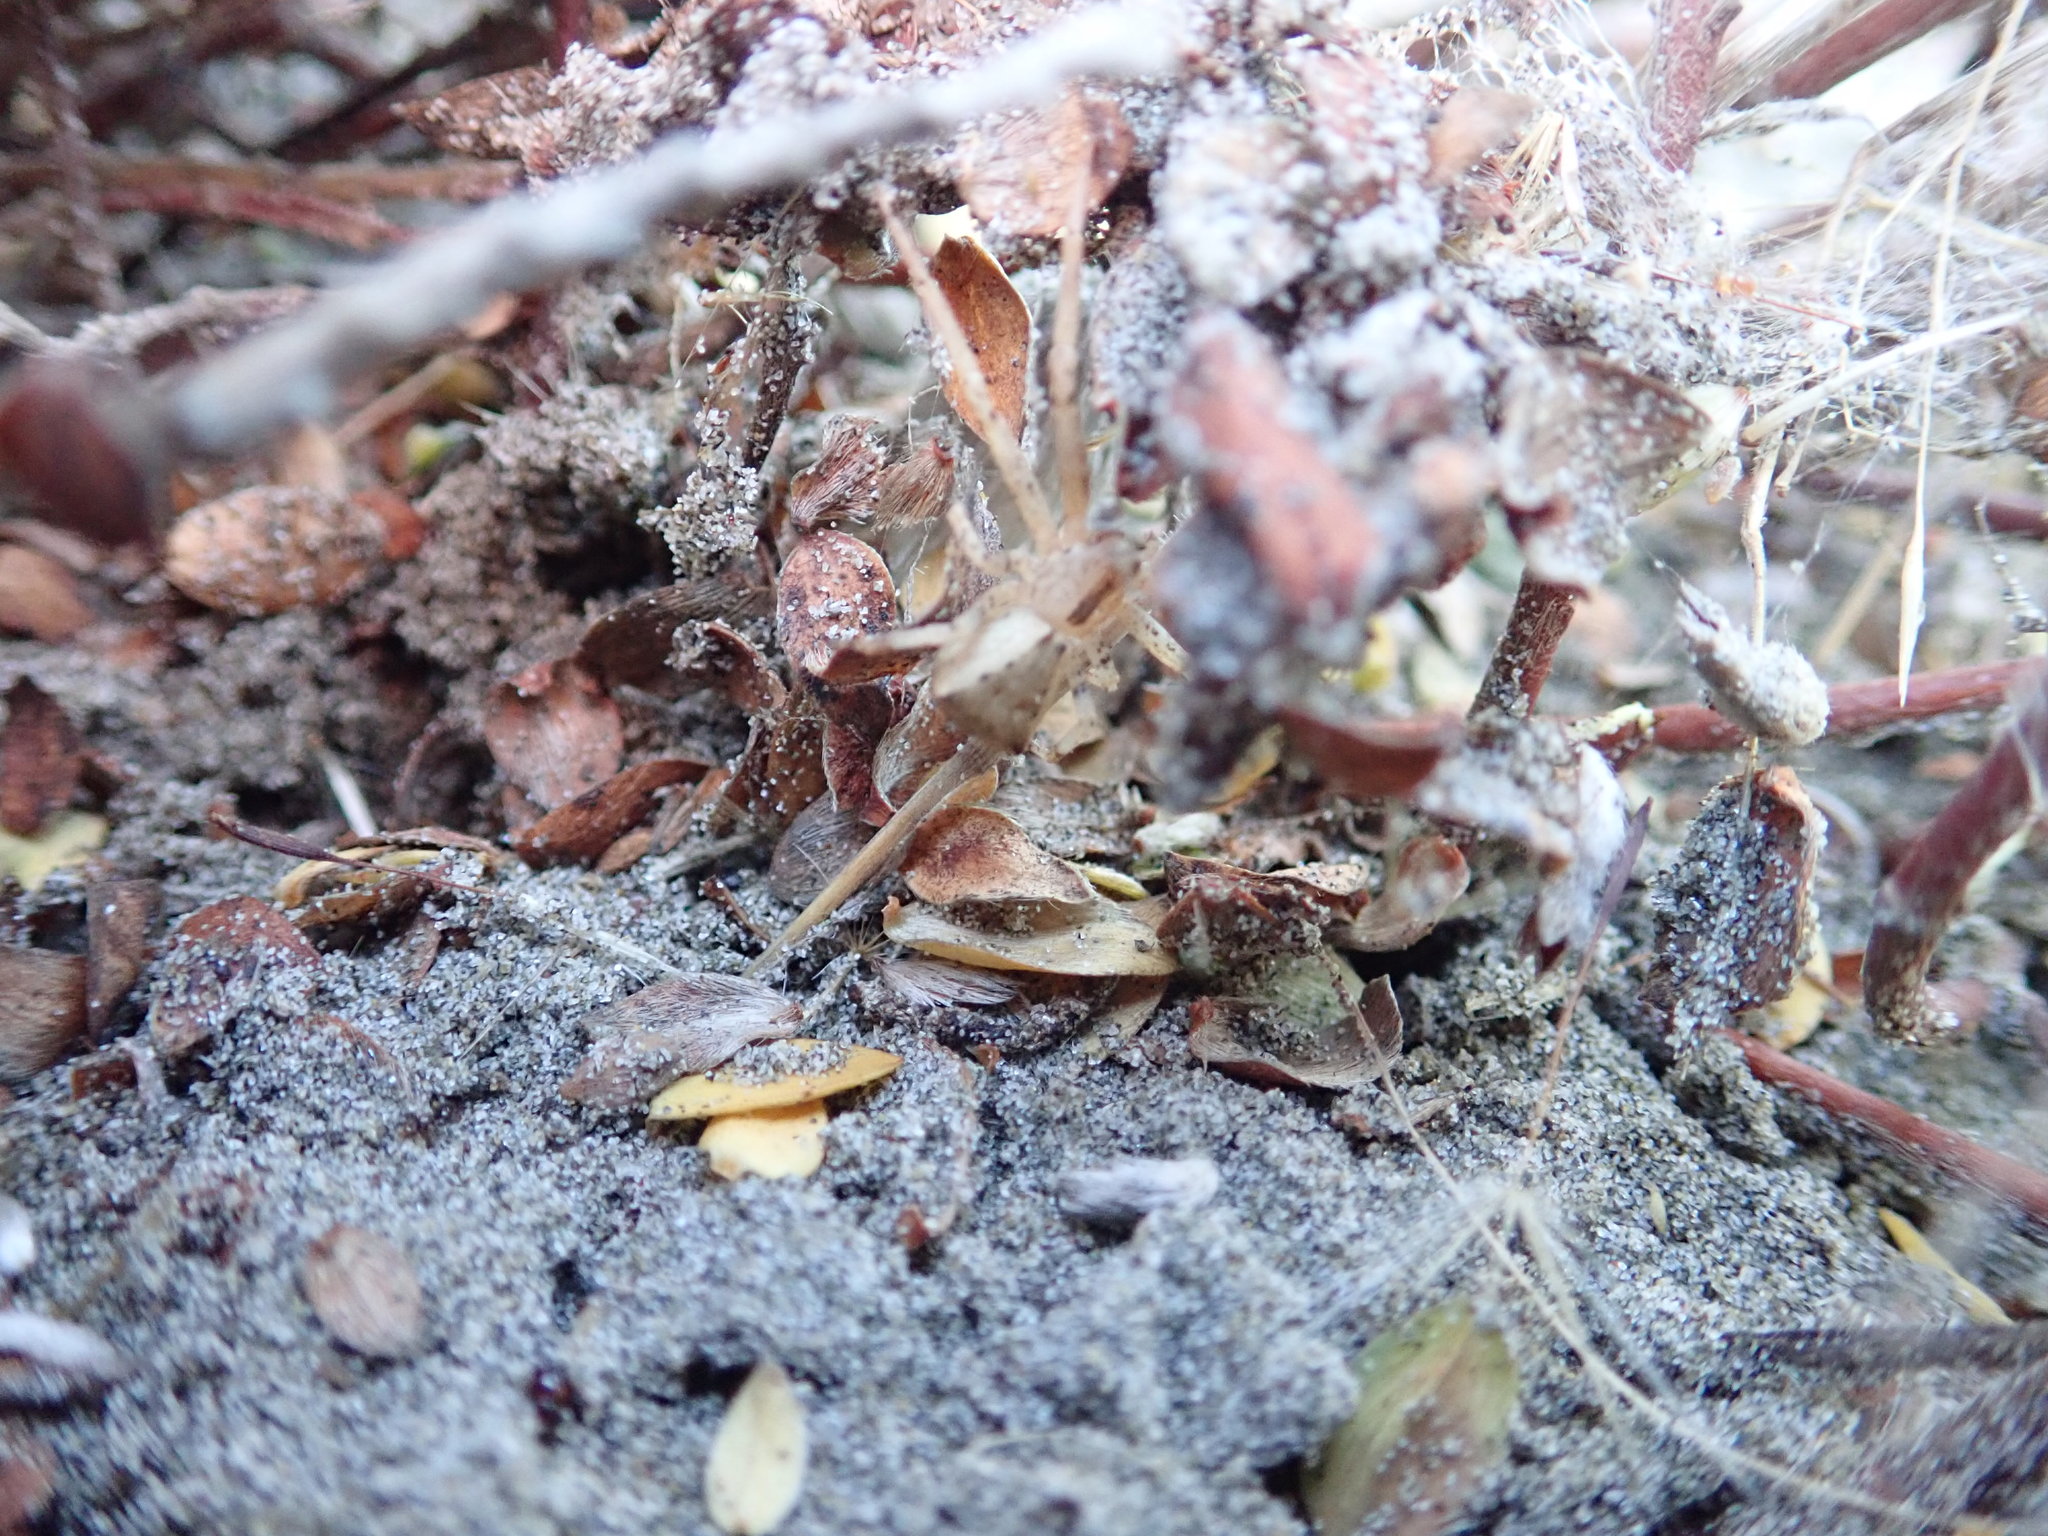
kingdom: Animalia
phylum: Arthropoda
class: Arachnida
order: Araneae
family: Theridiidae
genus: Latrodectus
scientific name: Latrodectus katipo
